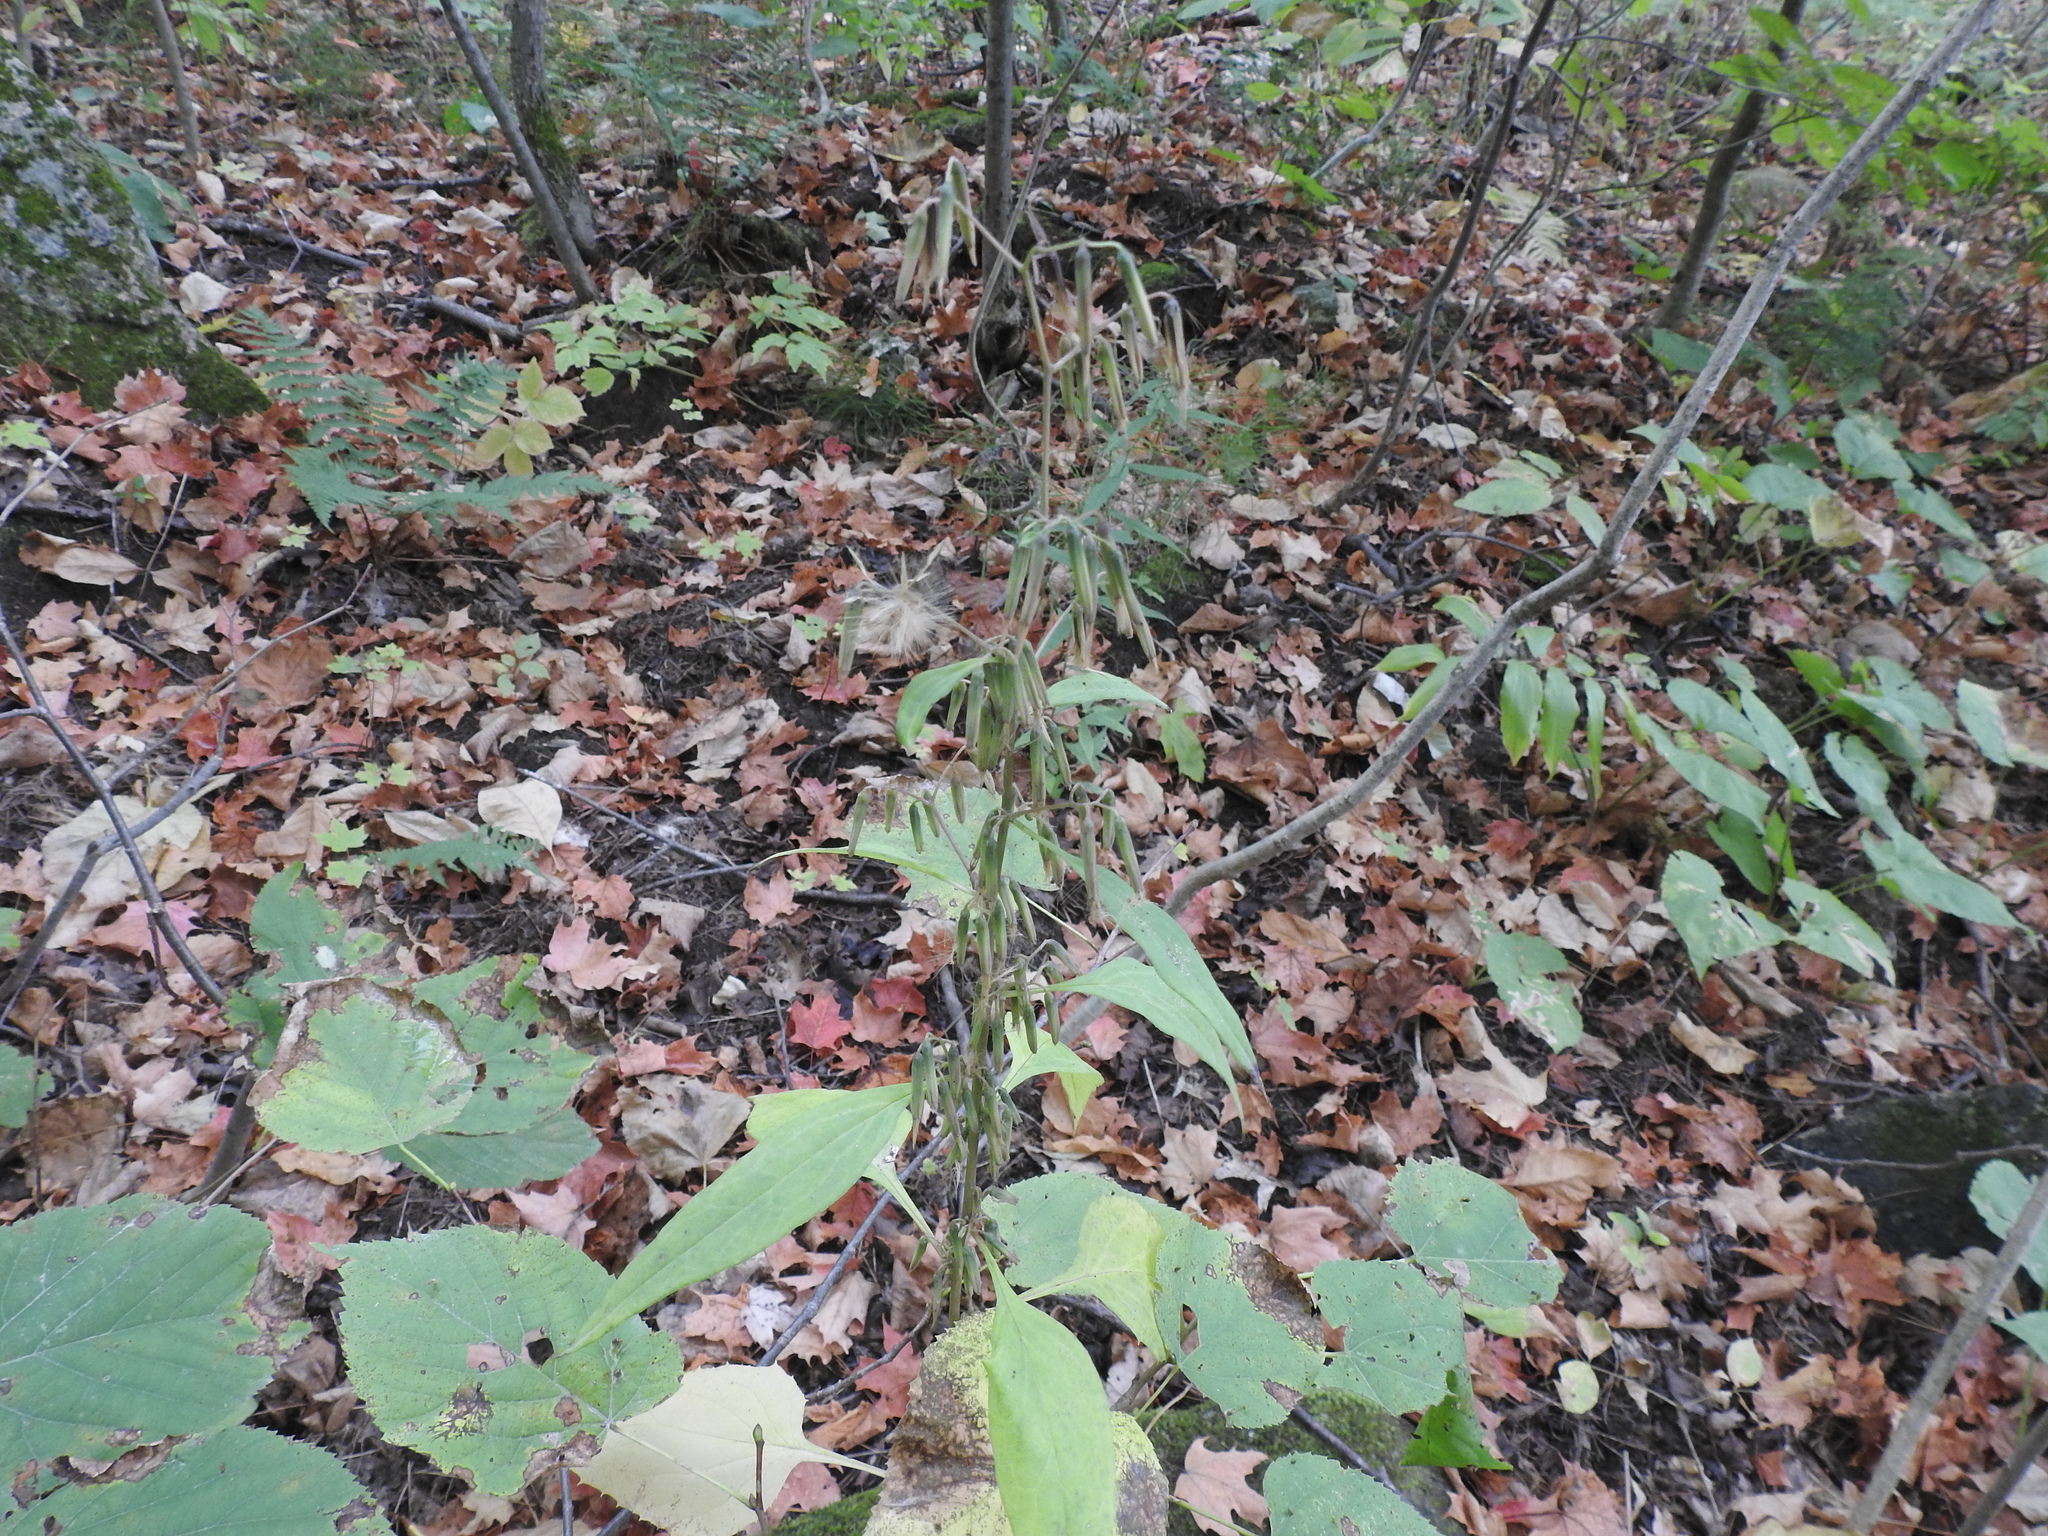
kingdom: Plantae
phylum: Tracheophyta
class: Magnoliopsida
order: Asterales
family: Asteraceae
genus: Nabalus
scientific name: Nabalus altissima
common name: Tall rattlesnakeroot
